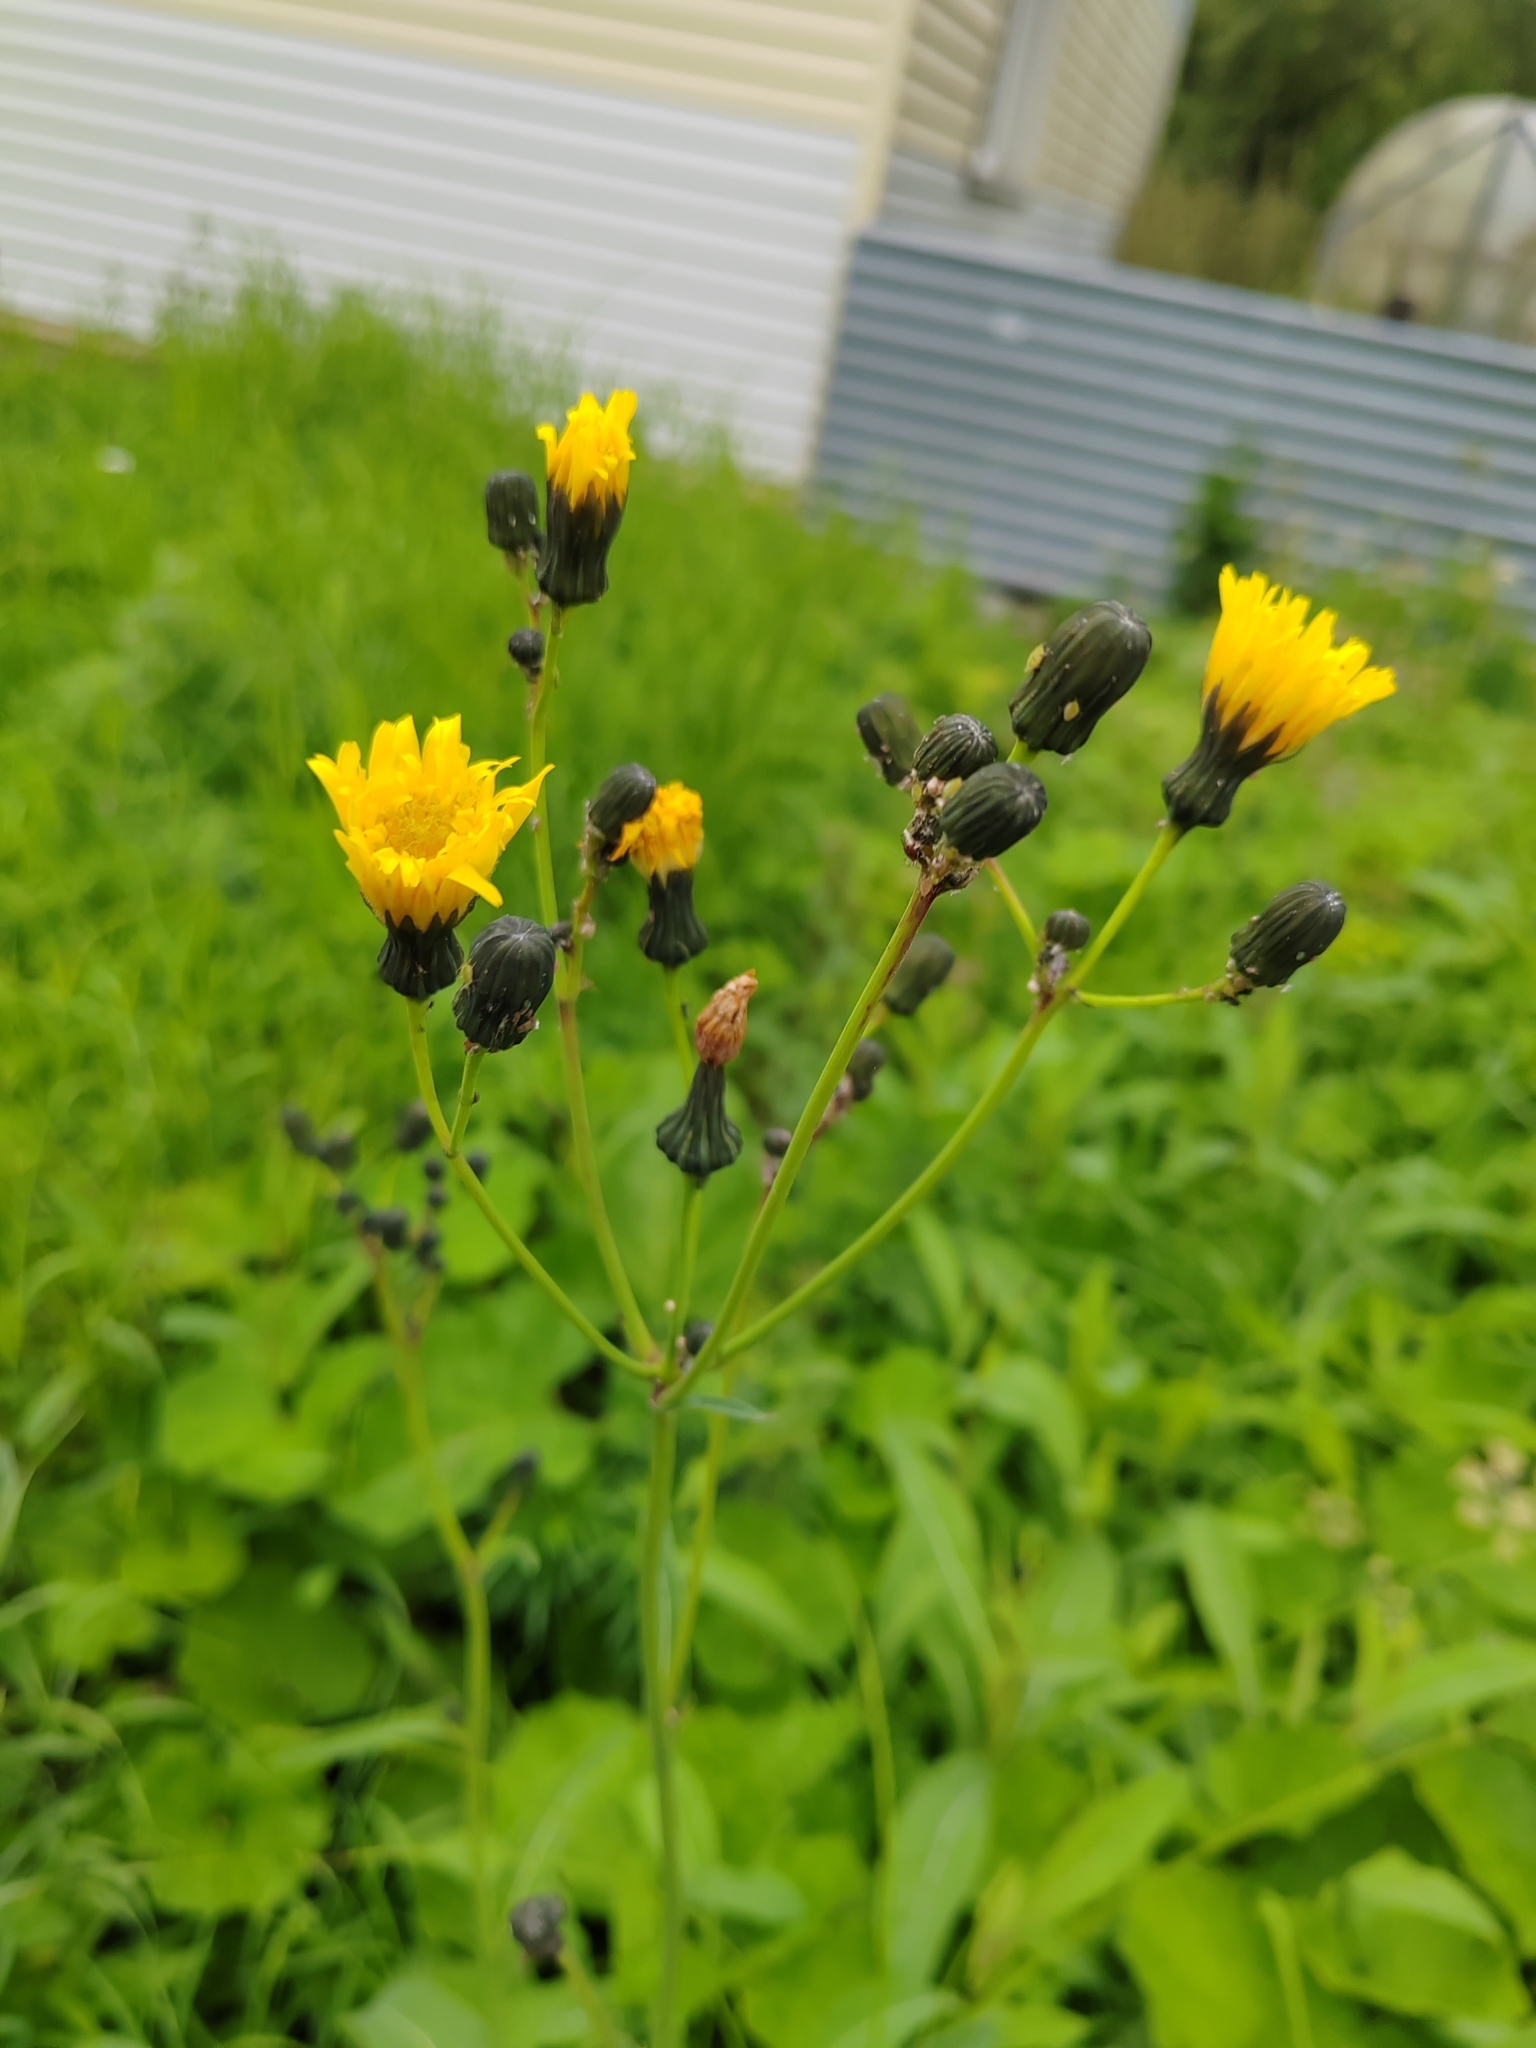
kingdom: Plantae
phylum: Tracheophyta
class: Magnoliopsida
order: Asterales
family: Asteraceae
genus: Sonchus
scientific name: Sonchus arvensis
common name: Perennial sow-thistle
